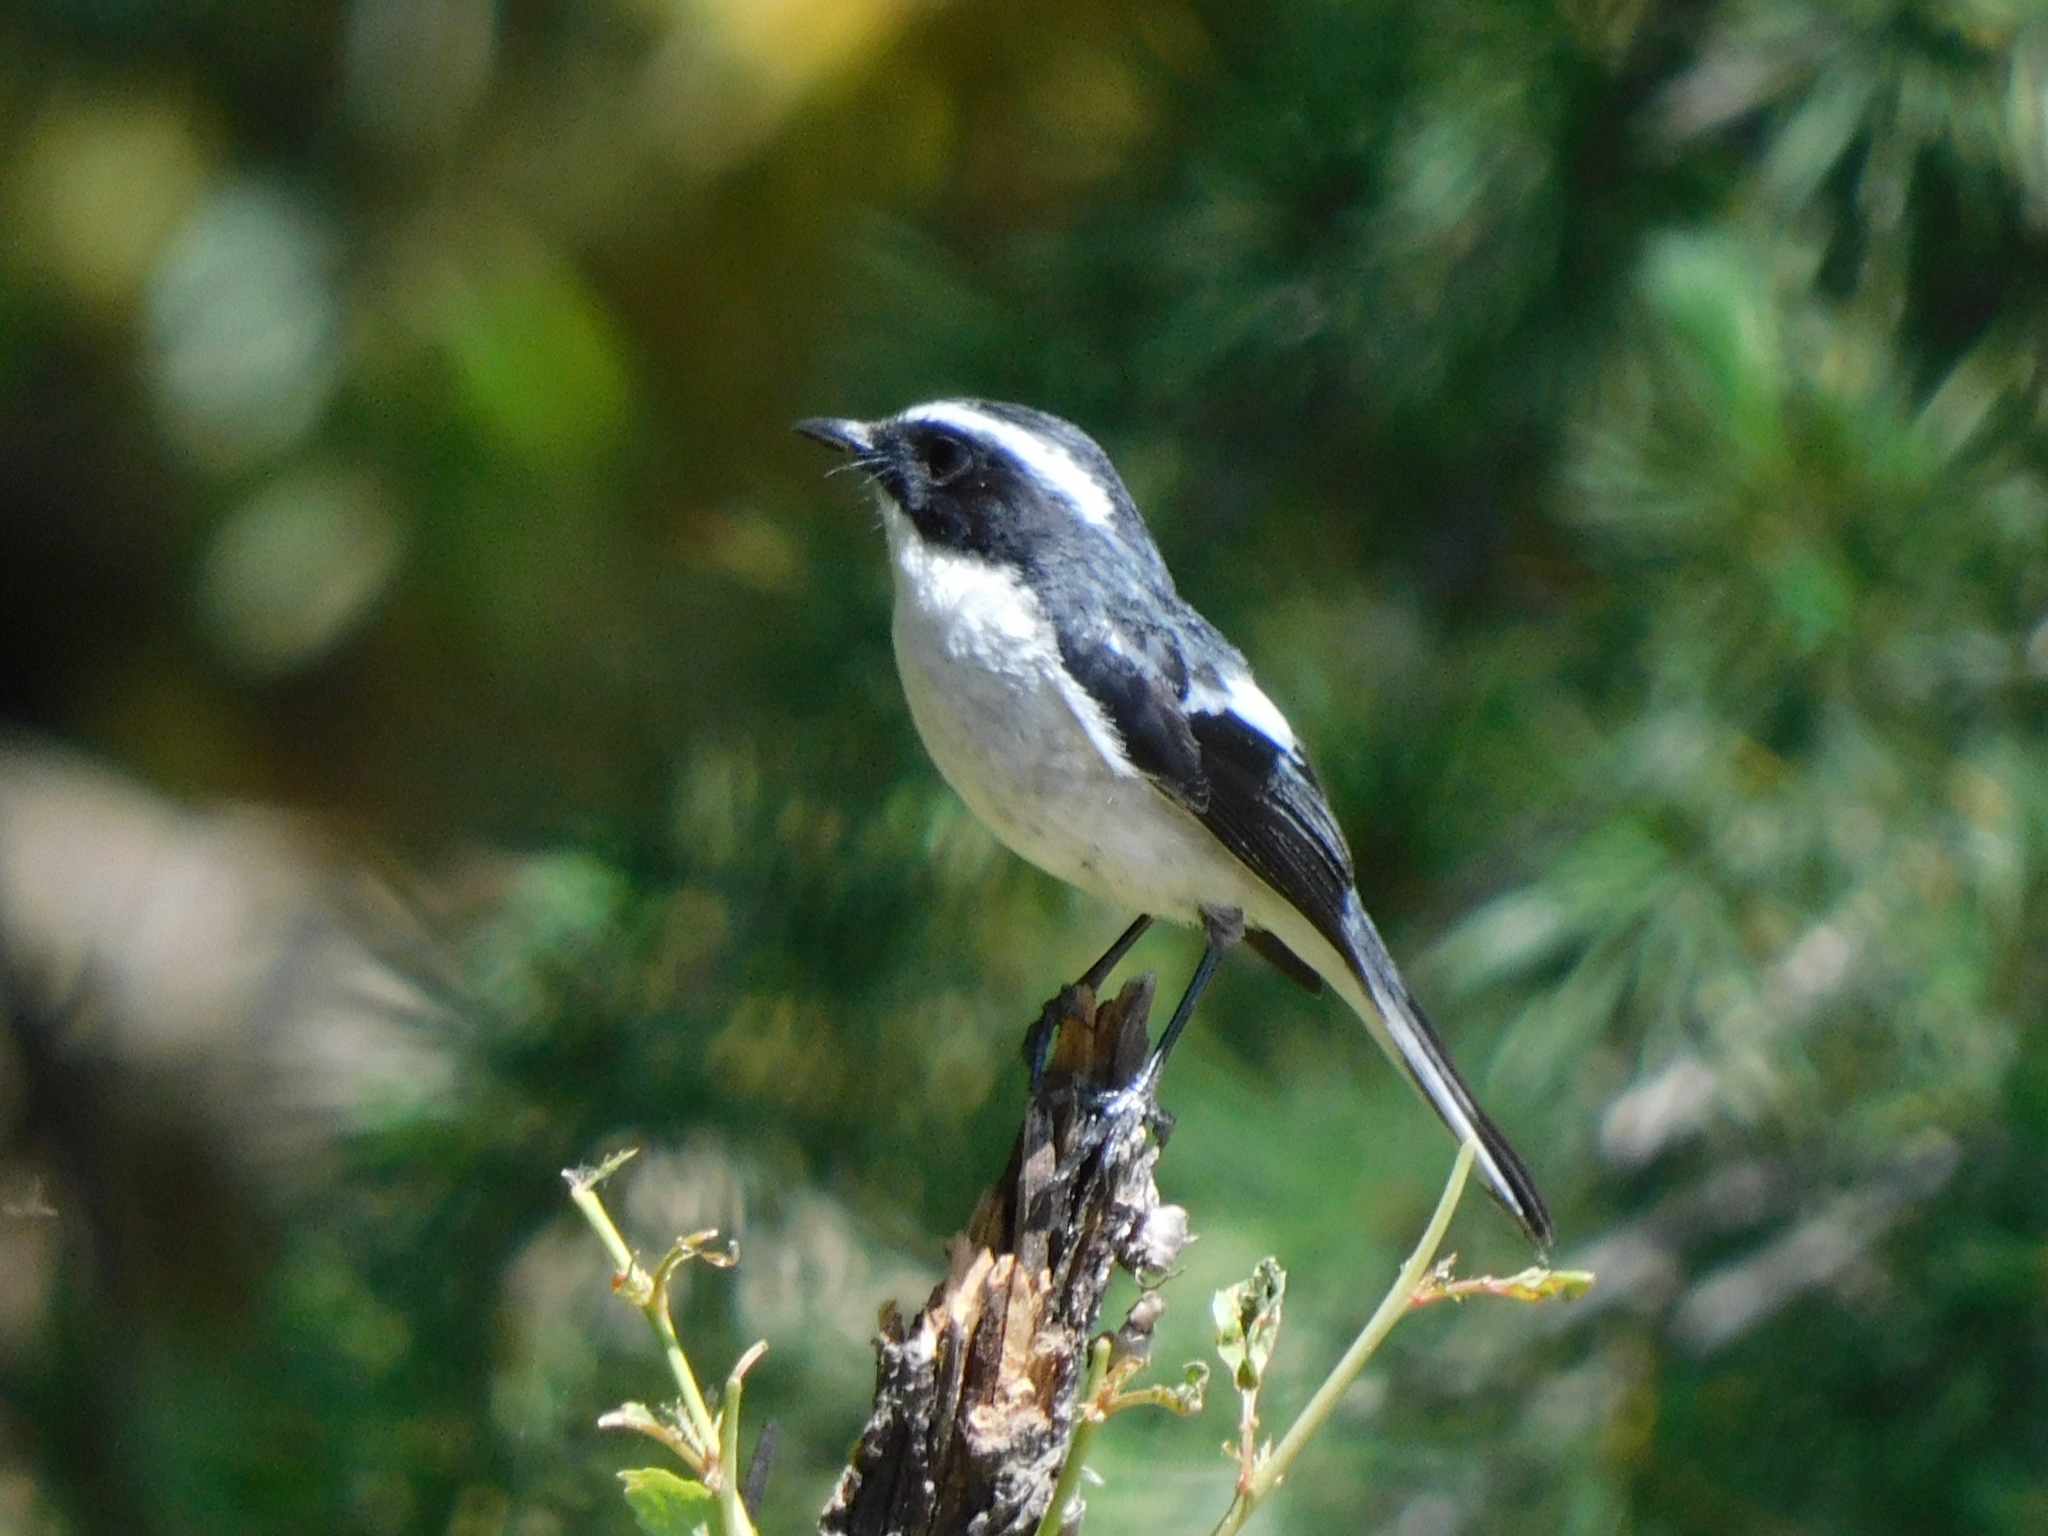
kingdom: Animalia
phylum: Chordata
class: Aves
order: Passeriformes
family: Muscicapidae
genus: Saxicola
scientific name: Saxicola ferreus
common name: Grey bush chat
